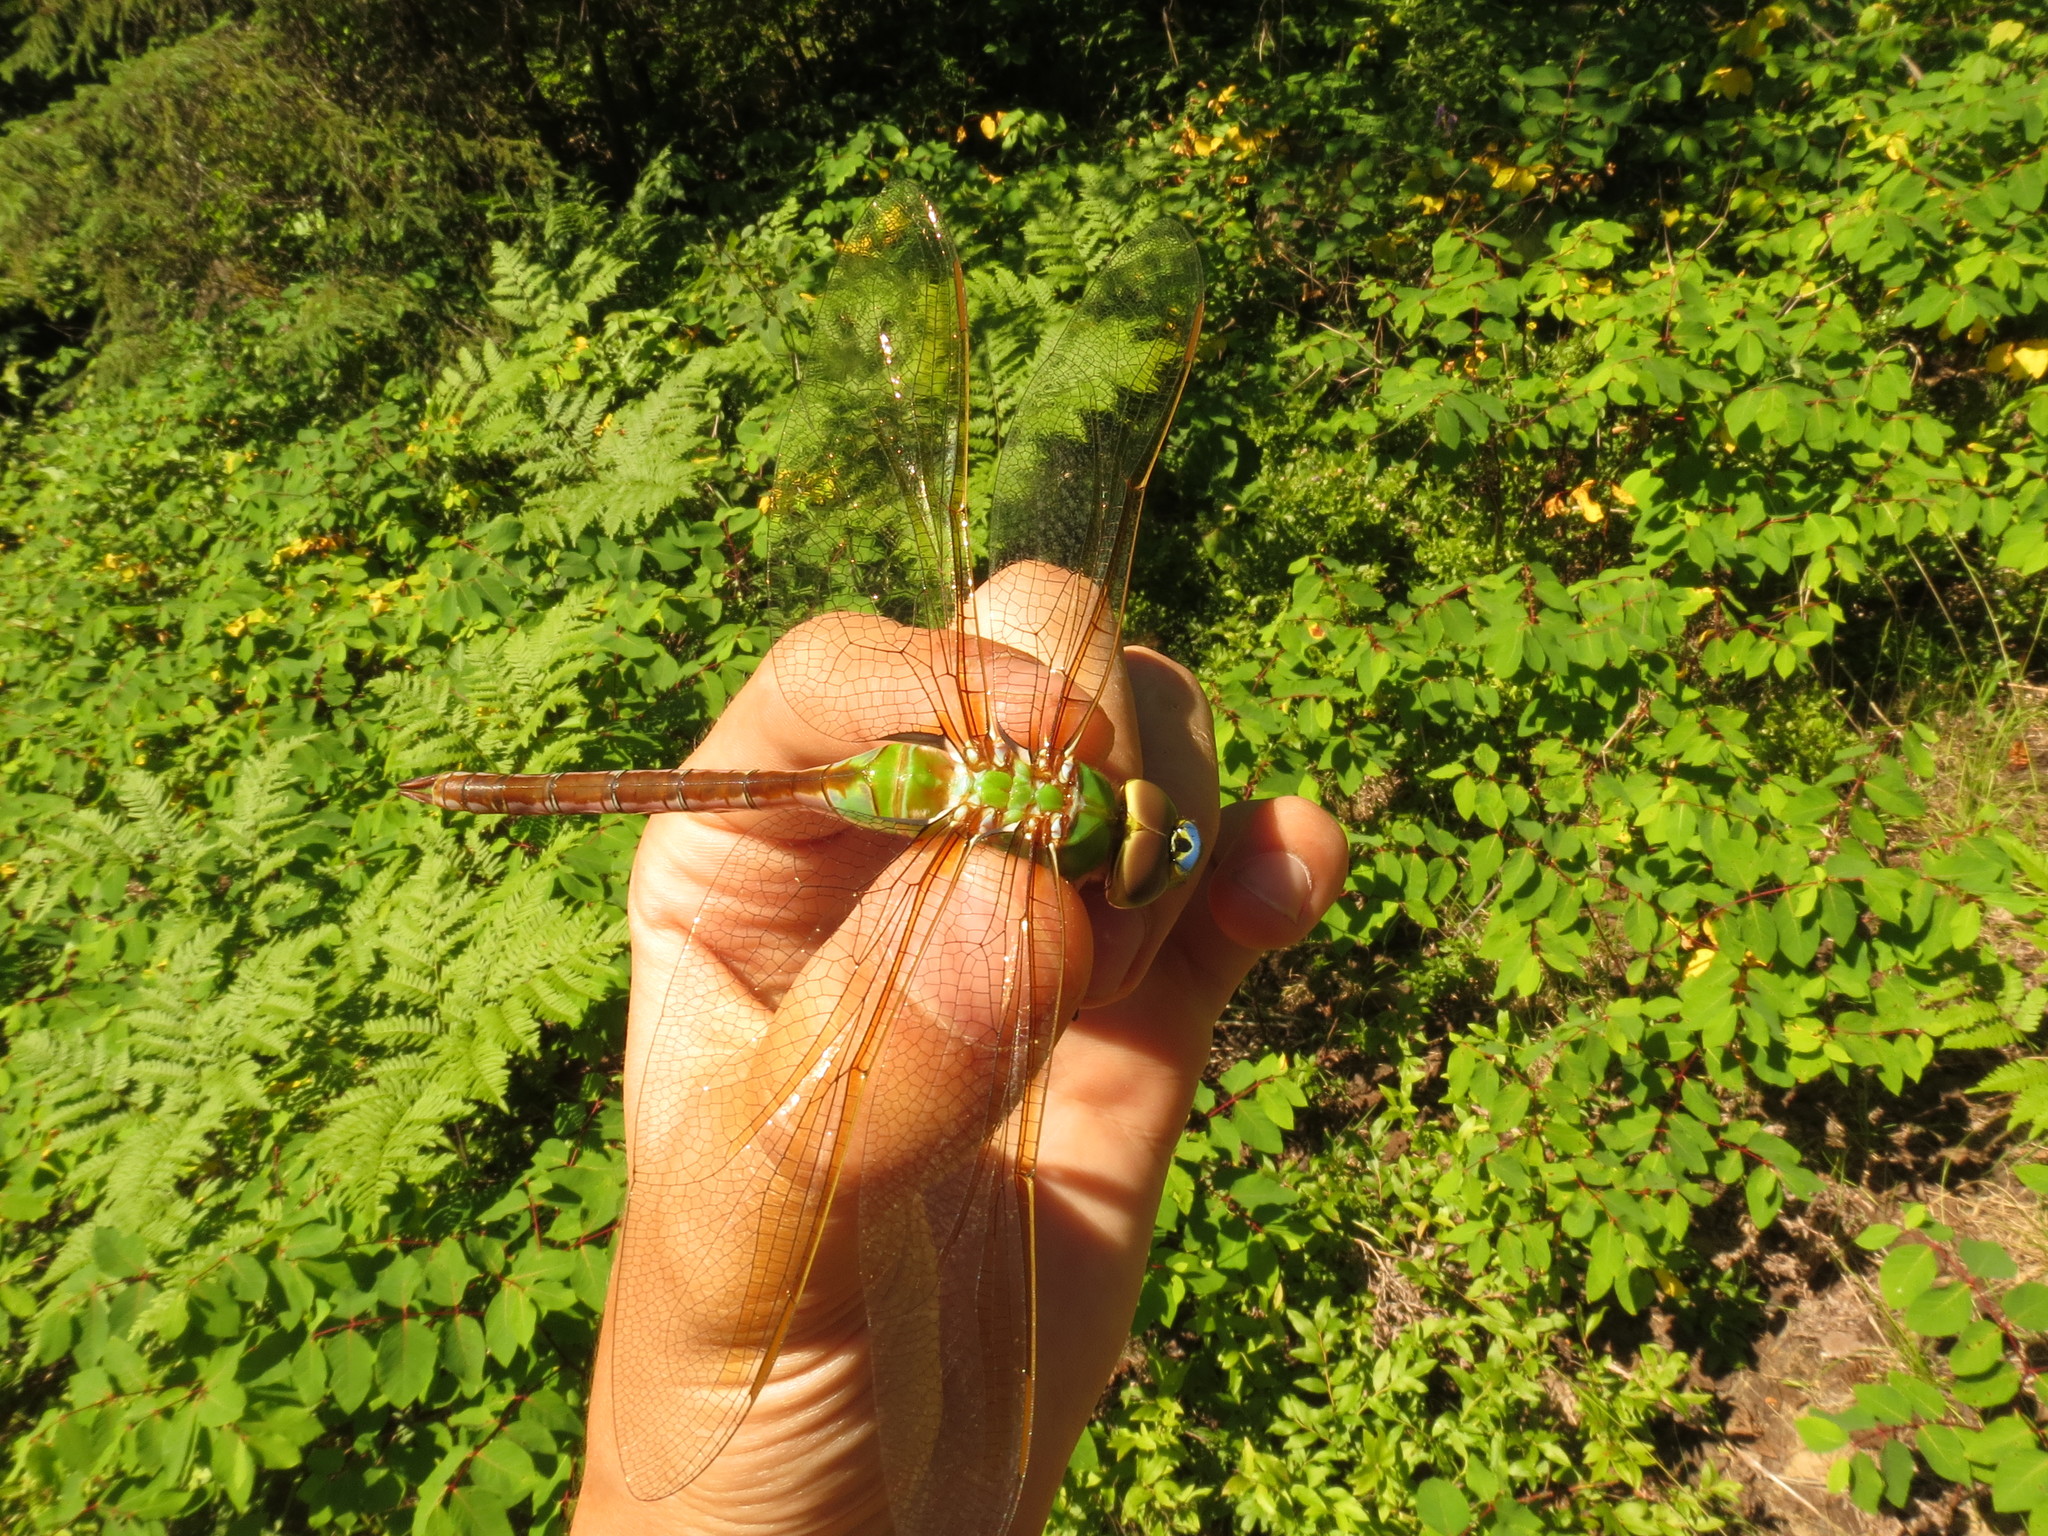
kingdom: Animalia
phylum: Arthropoda
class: Insecta
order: Odonata
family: Aeshnidae
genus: Anax
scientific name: Anax junius
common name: Common green darner
